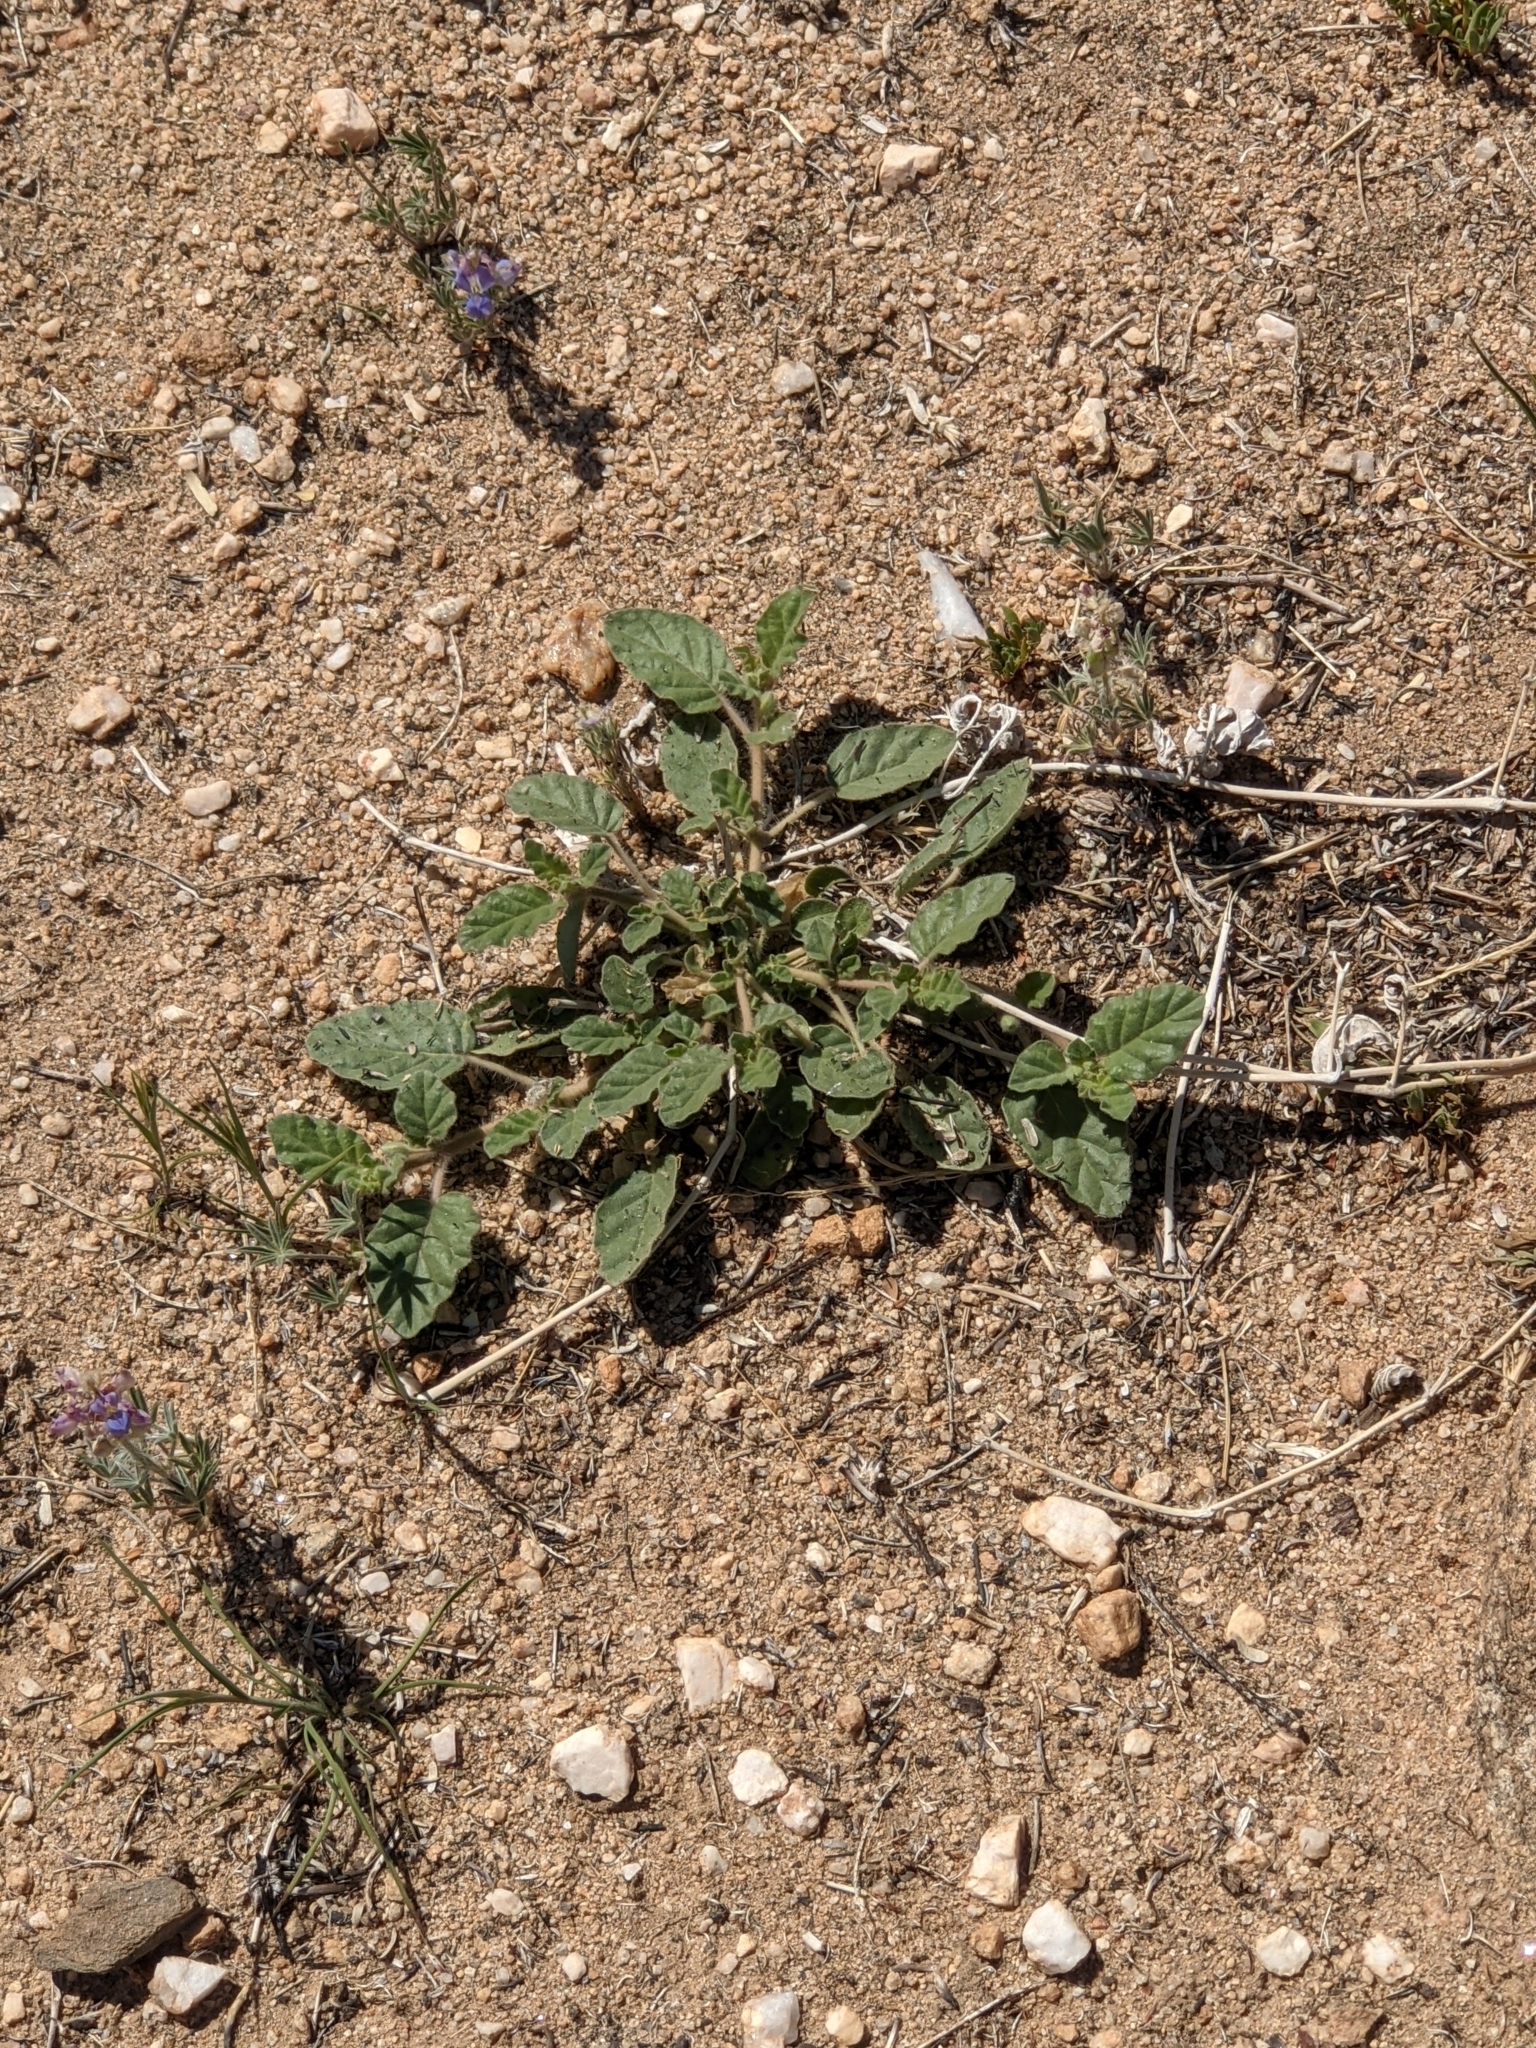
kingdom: Plantae
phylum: Tracheophyta
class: Magnoliopsida
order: Caryophyllales
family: Nyctaginaceae
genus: Allionia
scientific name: Allionia incarnata
